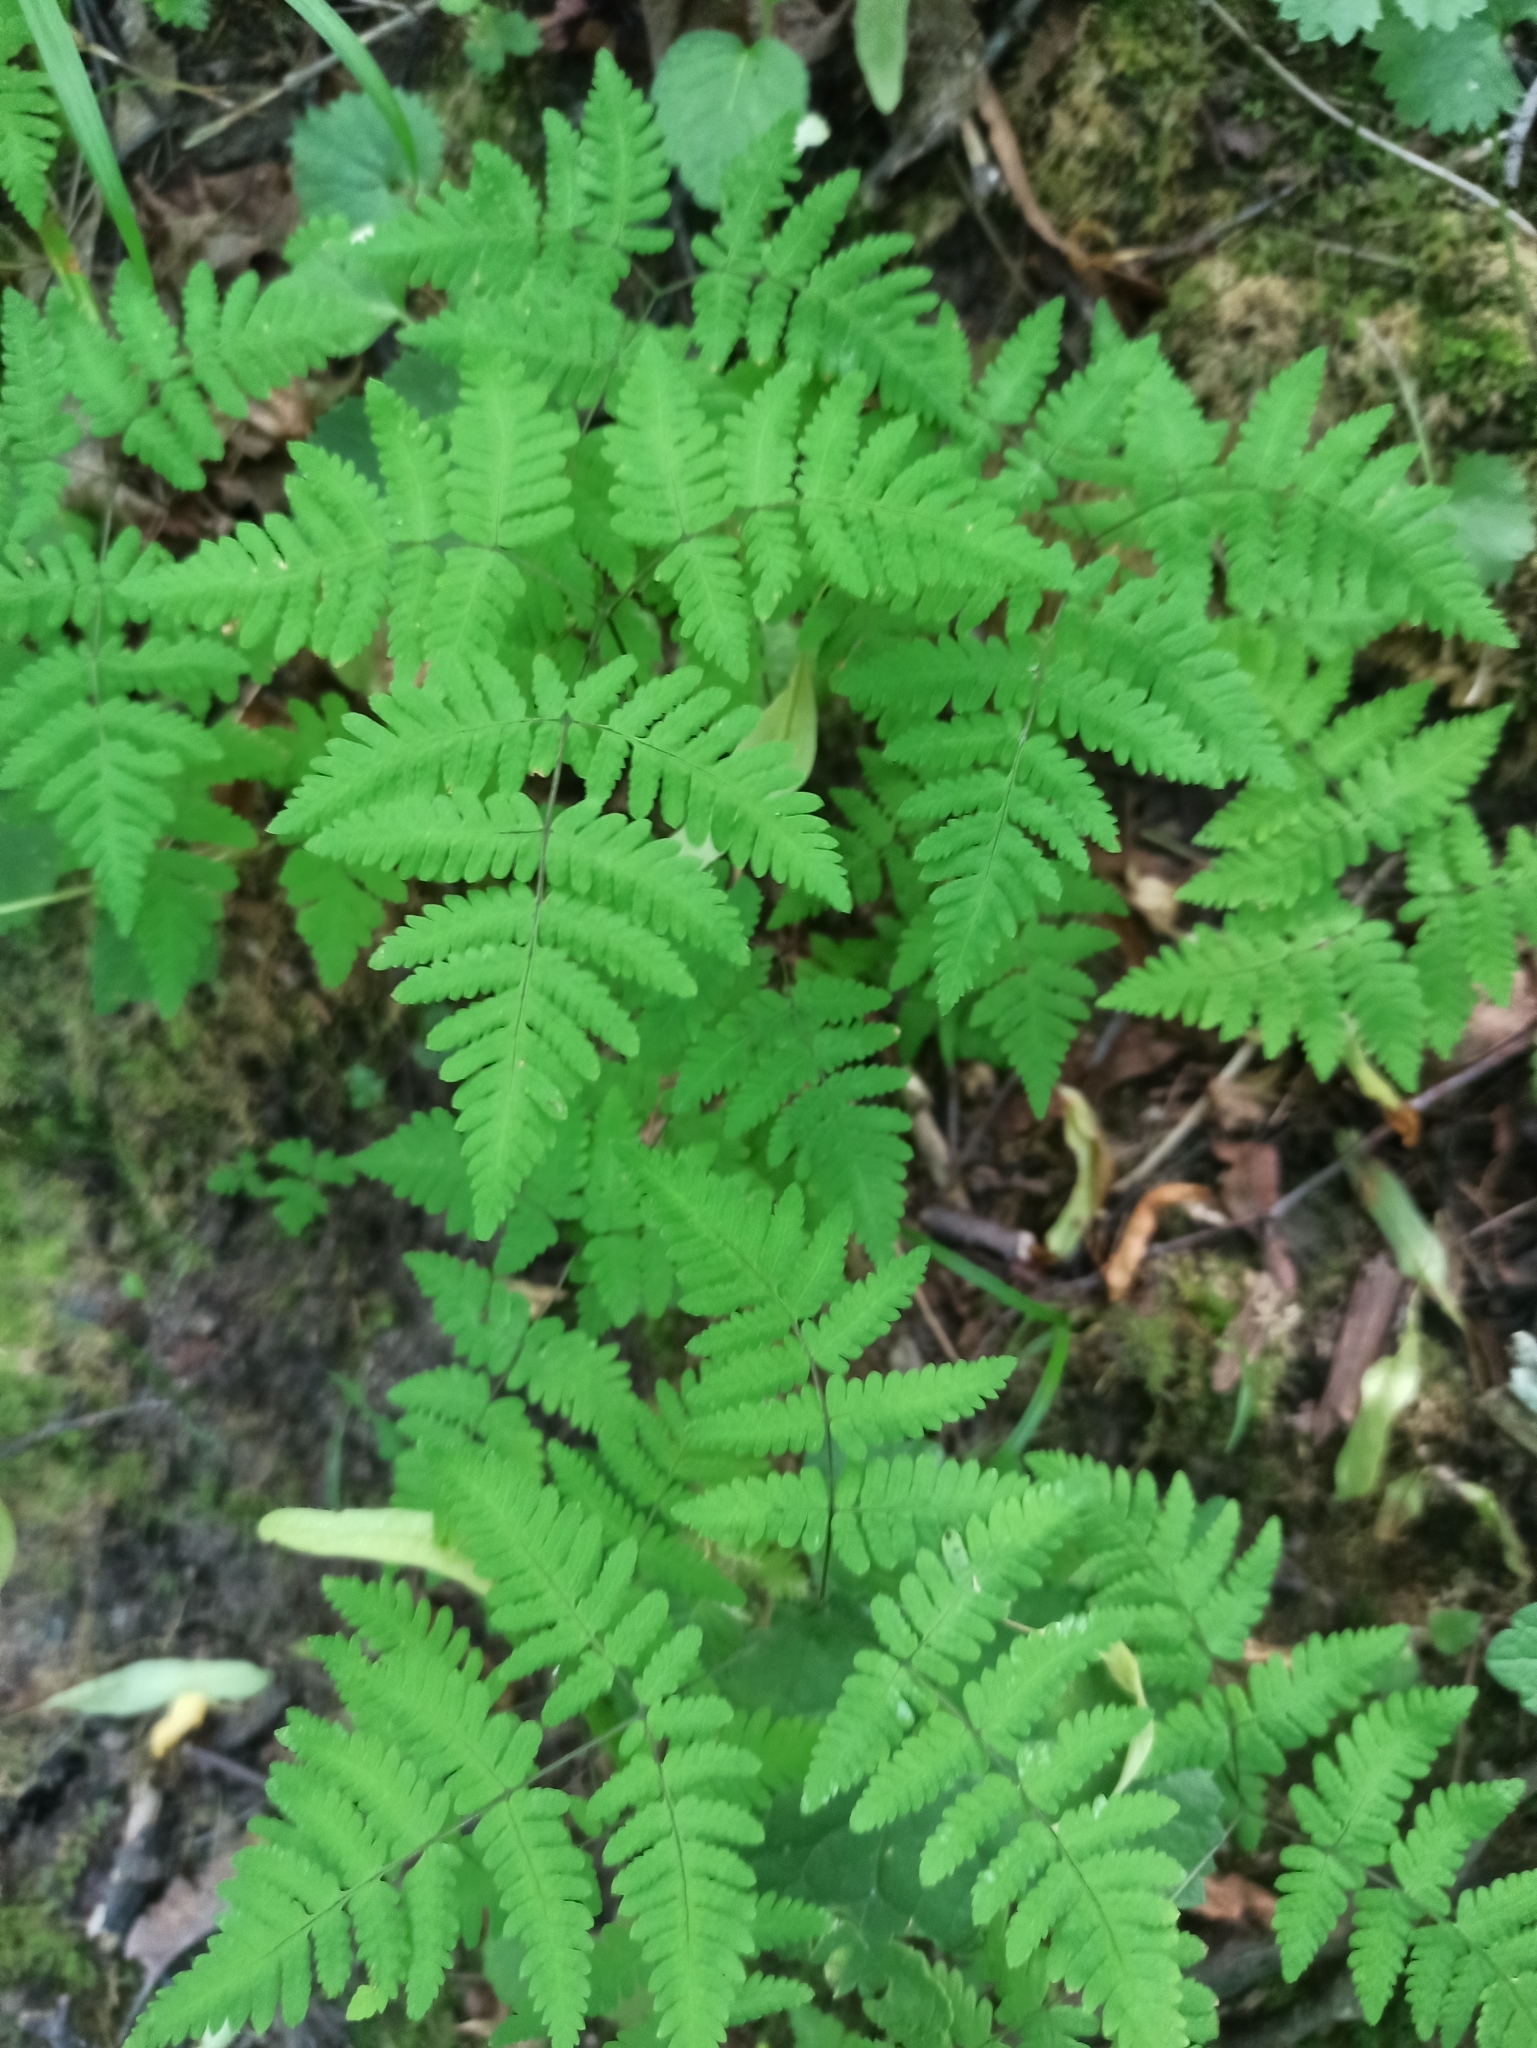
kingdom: Plantae
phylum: Tracheophyta
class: Polypodiopsida
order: Polypodiales
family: Cystopteridaceae
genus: Gymnocarpium
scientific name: Gymnocarpium dryopteris
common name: Oak fern
